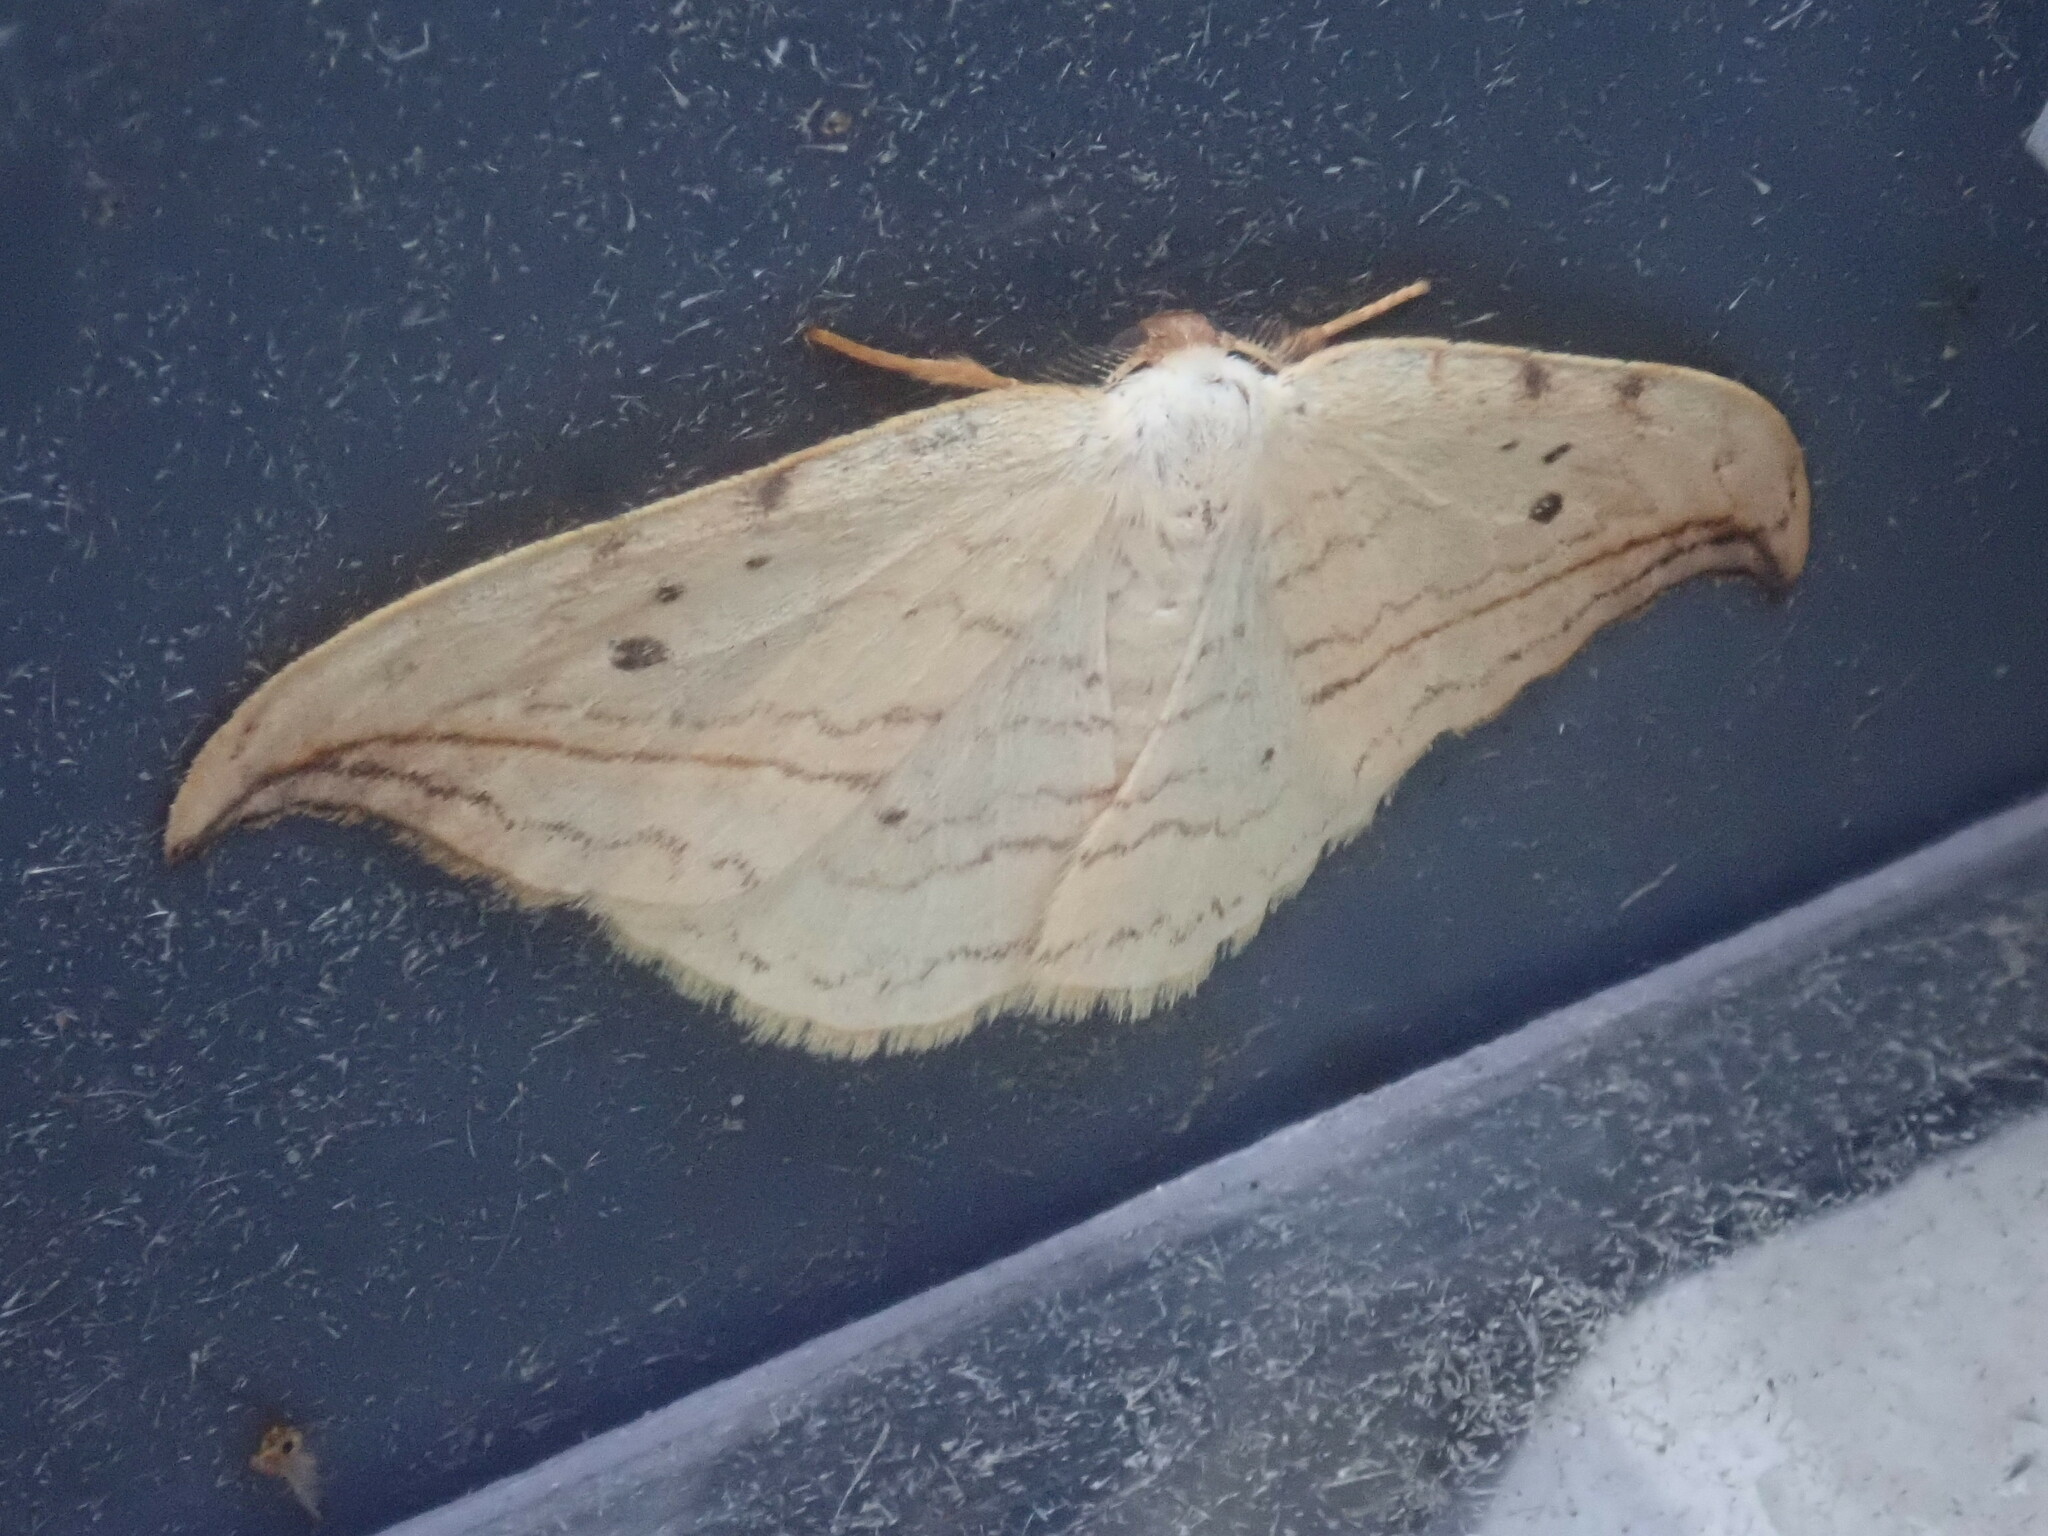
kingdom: Animalia
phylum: Arthropoda
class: Insecta
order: Lepidoptera
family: Drepanidae
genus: Drepana
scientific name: Drepana arcuata
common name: Arched hooktip moth
